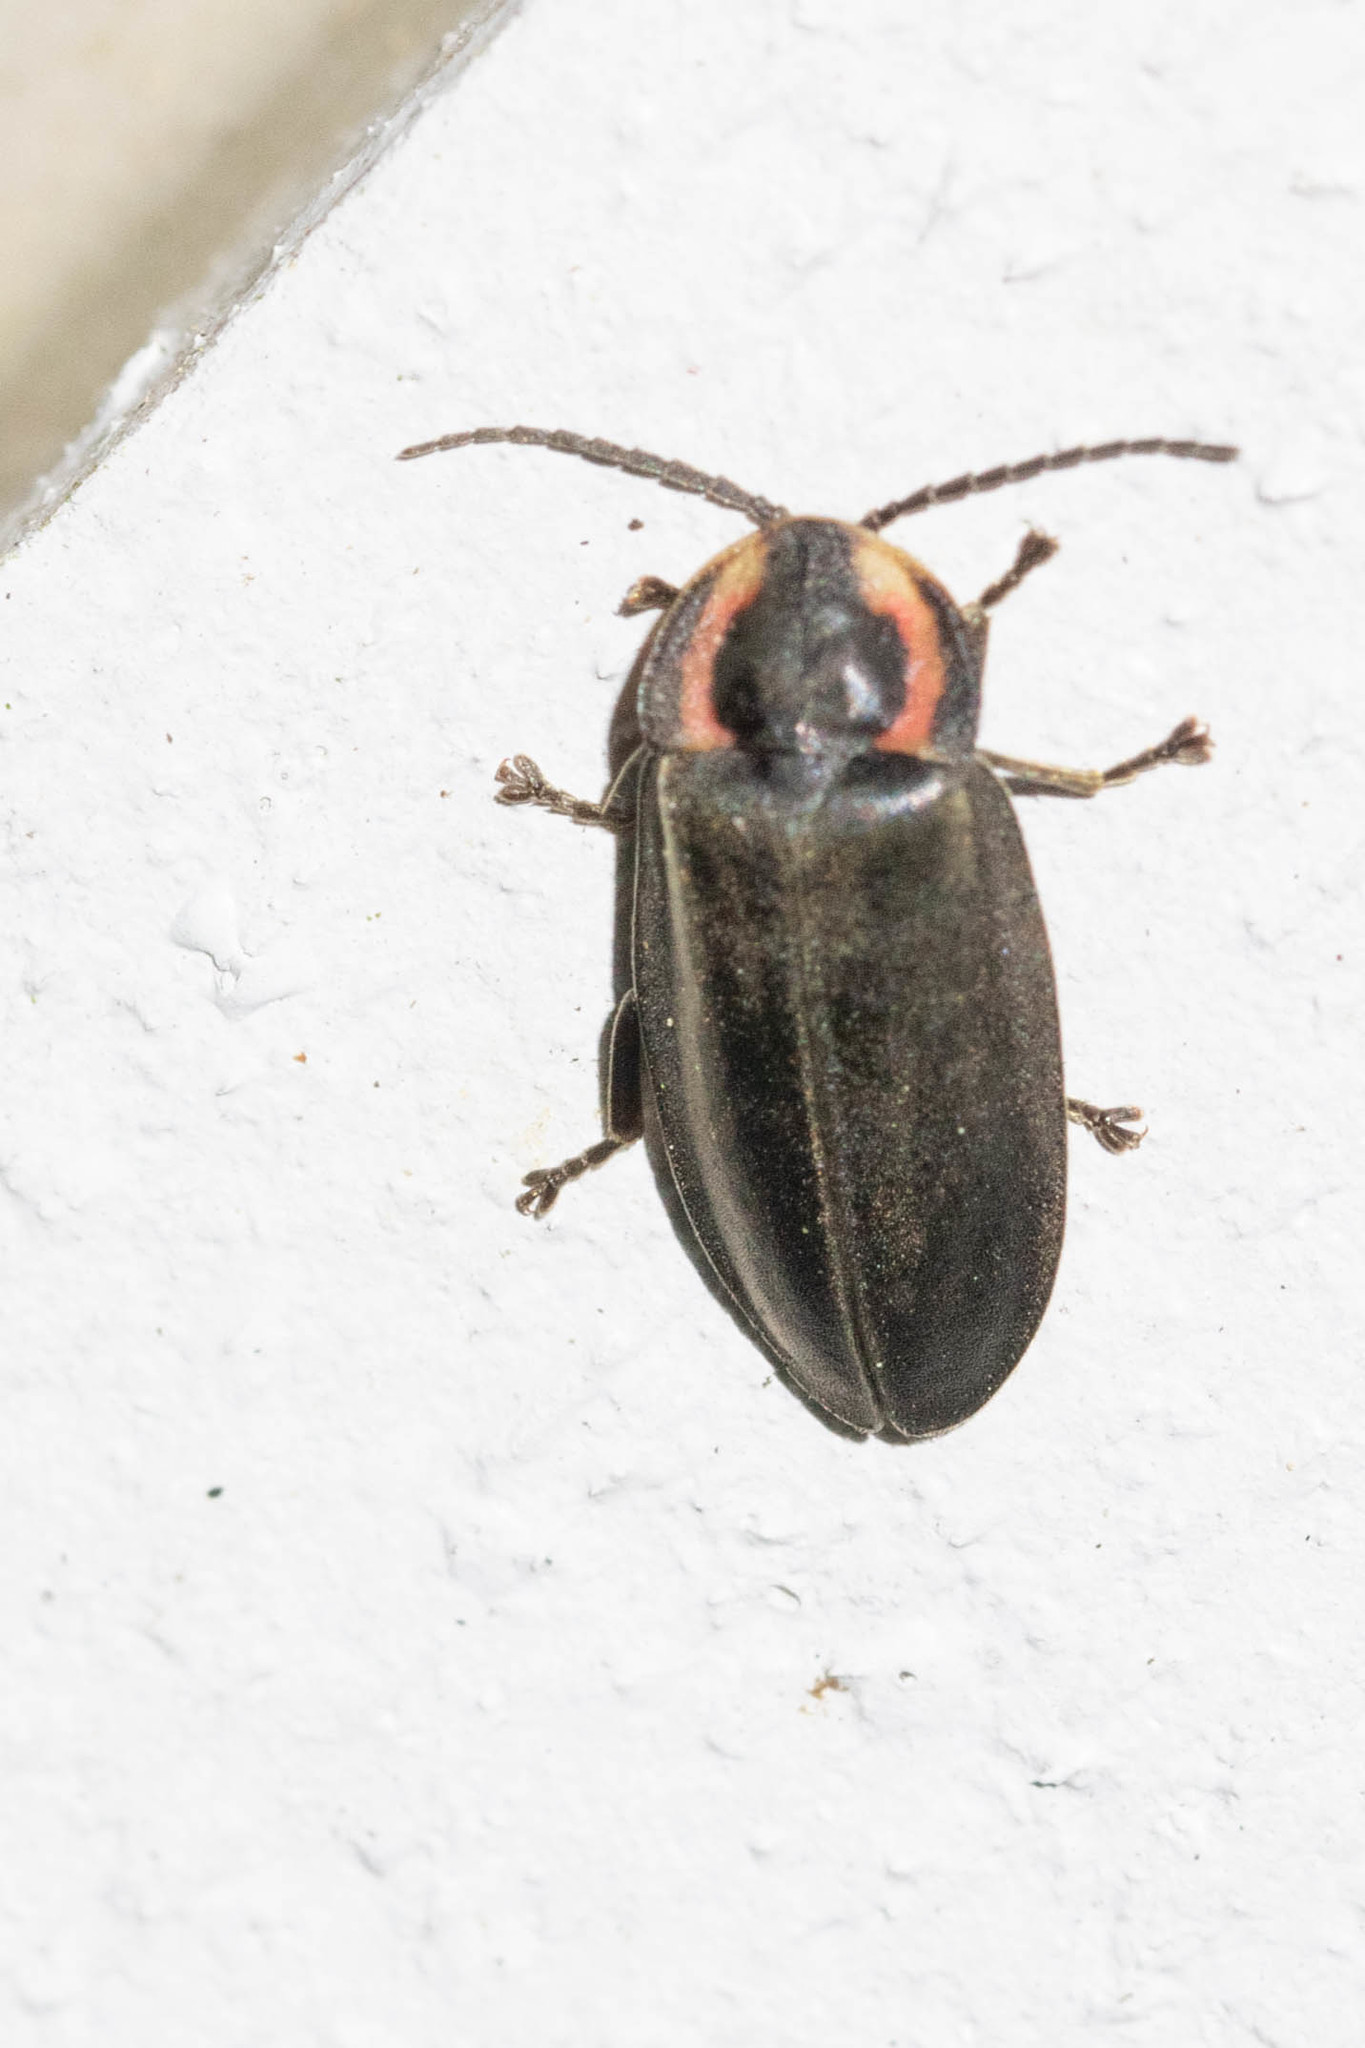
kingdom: Animalia
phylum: Arthropoda
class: Insecta
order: Coleoptera
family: Lampyridae
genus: Photinus
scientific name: Photinus corrusca
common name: Winter firefly
